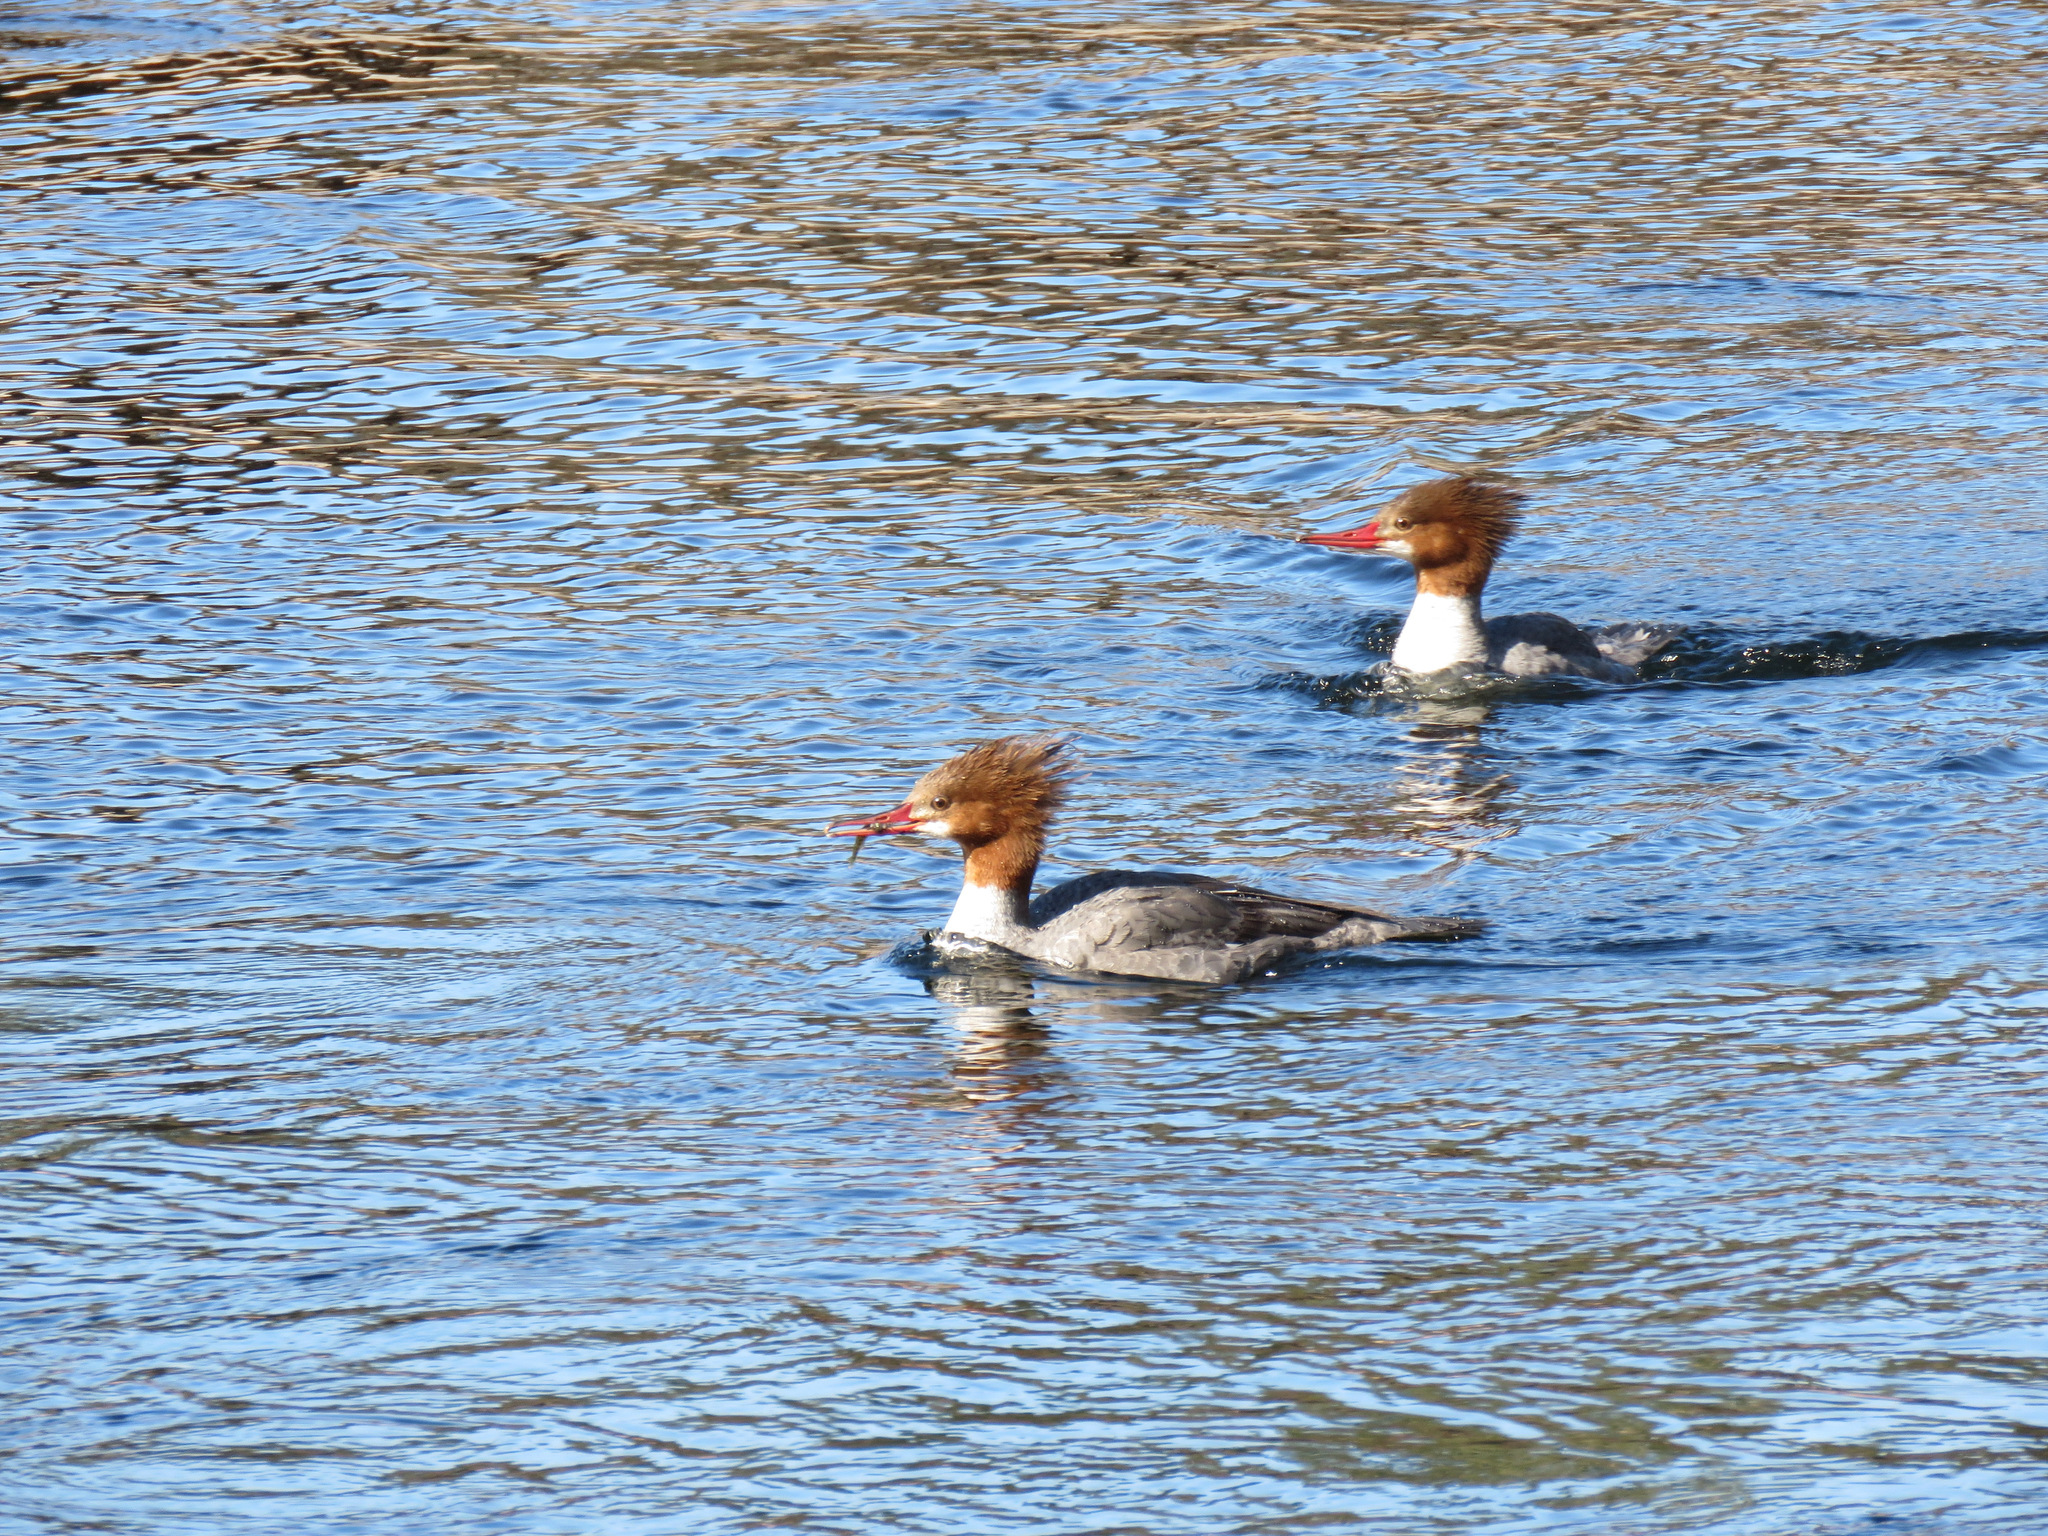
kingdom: Animalia
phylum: Chordata
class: Aves
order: Anseriformes
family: Anatidae
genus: Mergus
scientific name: Mergus merganser
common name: Common merganser
